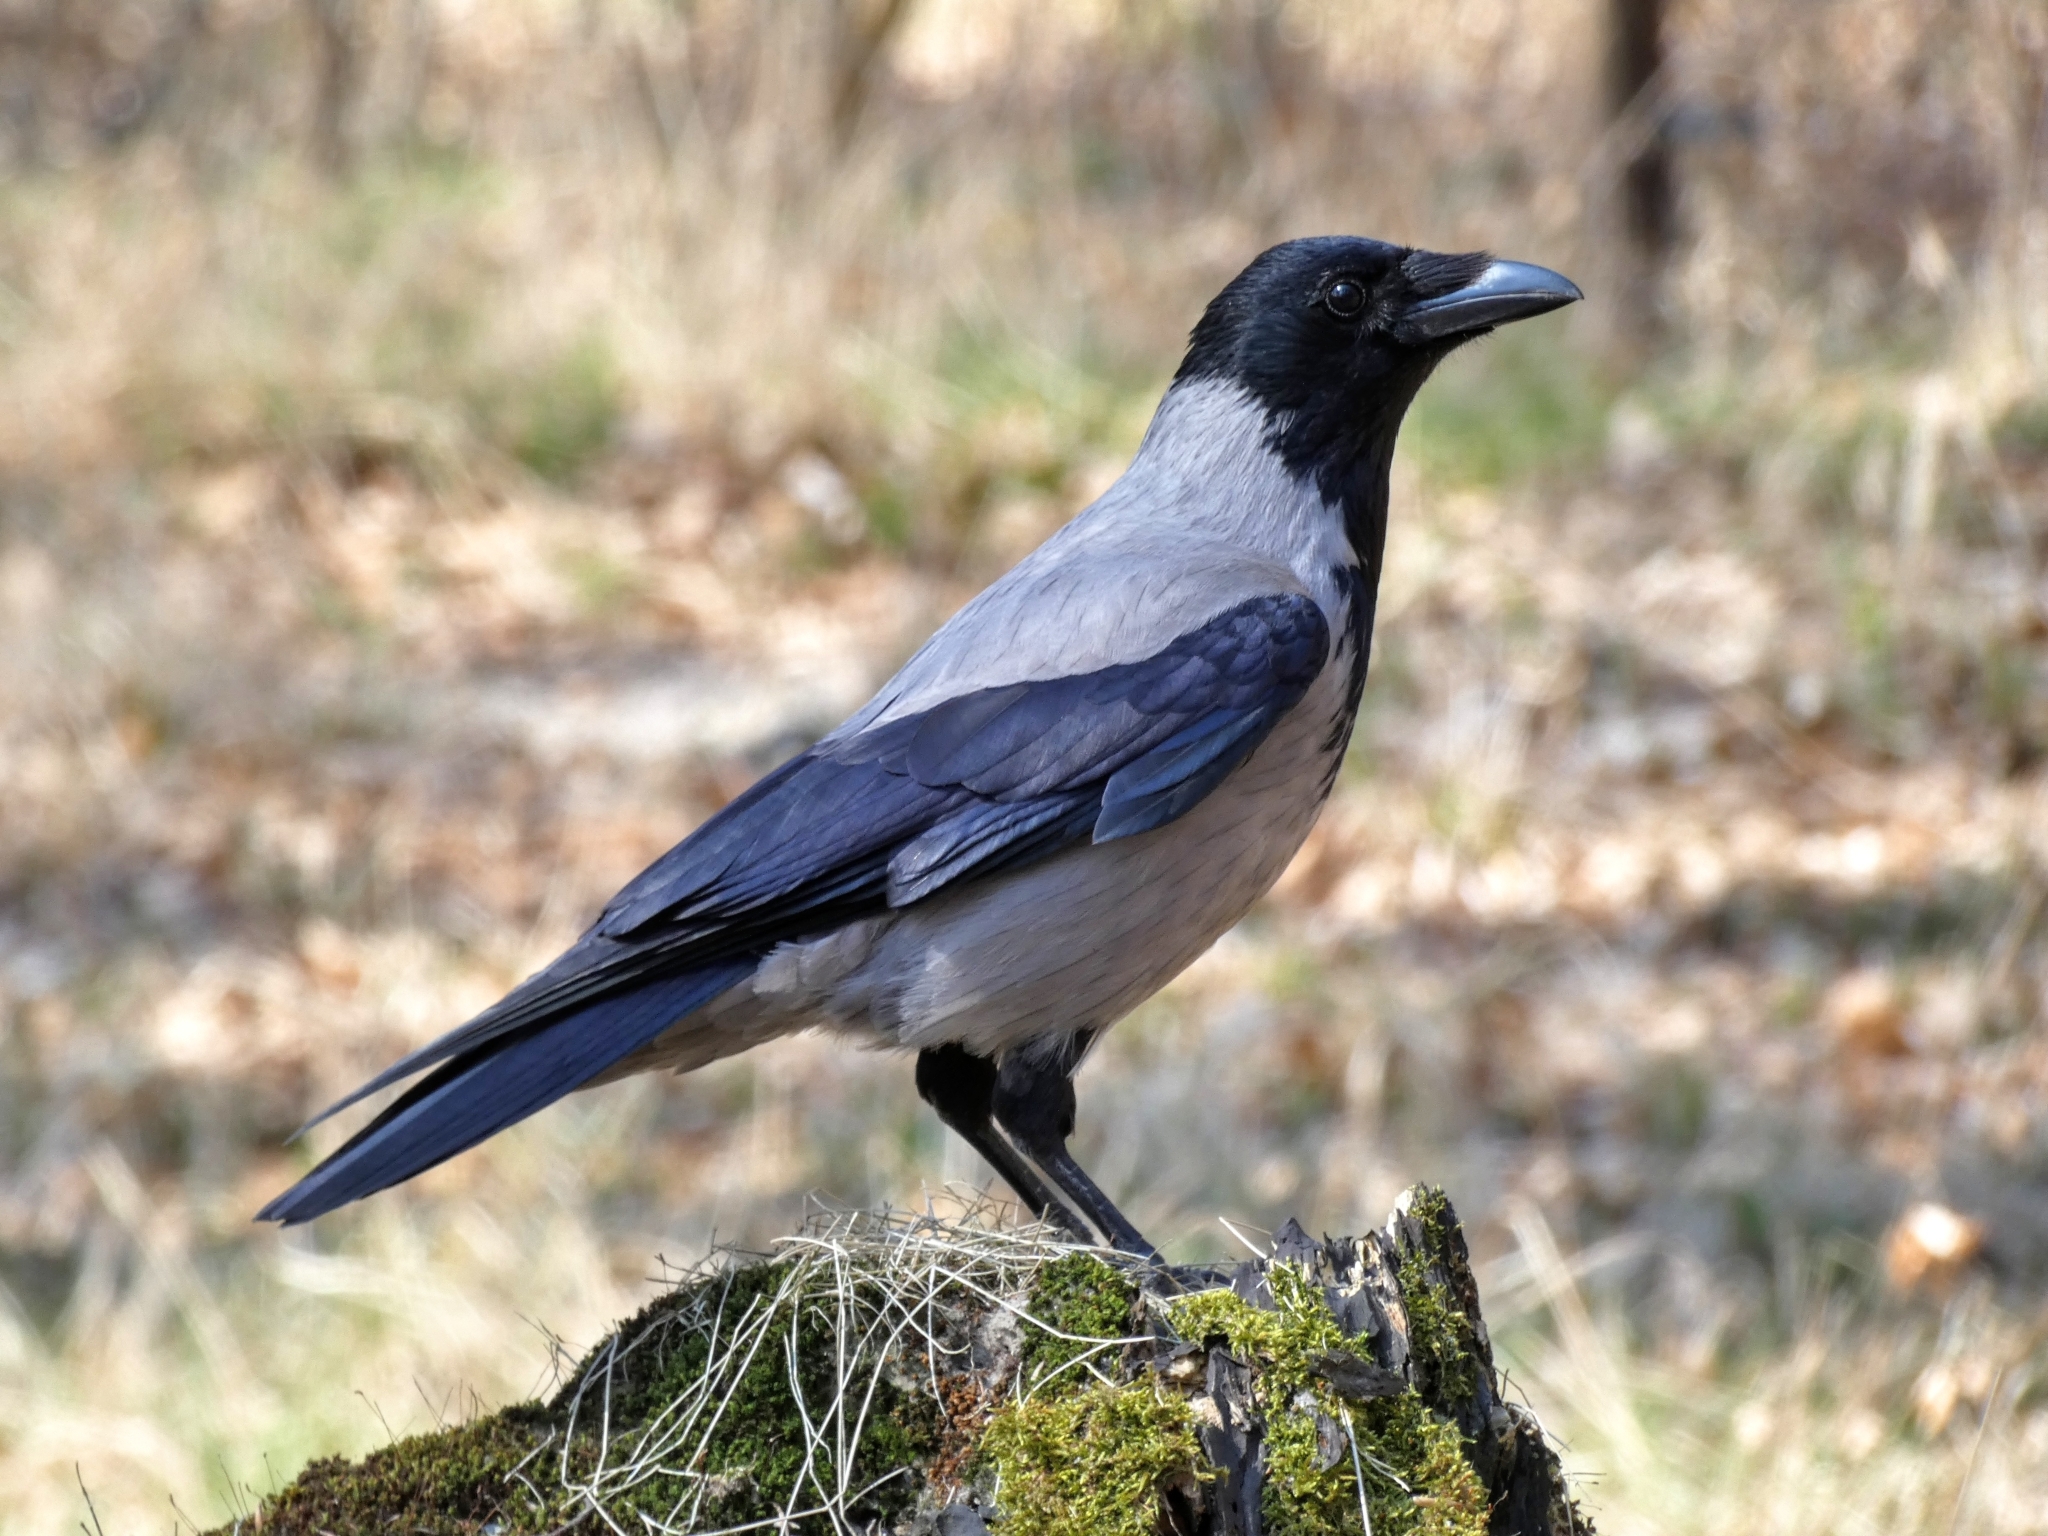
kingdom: Animalia
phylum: Chordata
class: Aves
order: Passeriformes
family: Corvidae
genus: Corvus
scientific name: Corvus cornix
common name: Hooded crow
